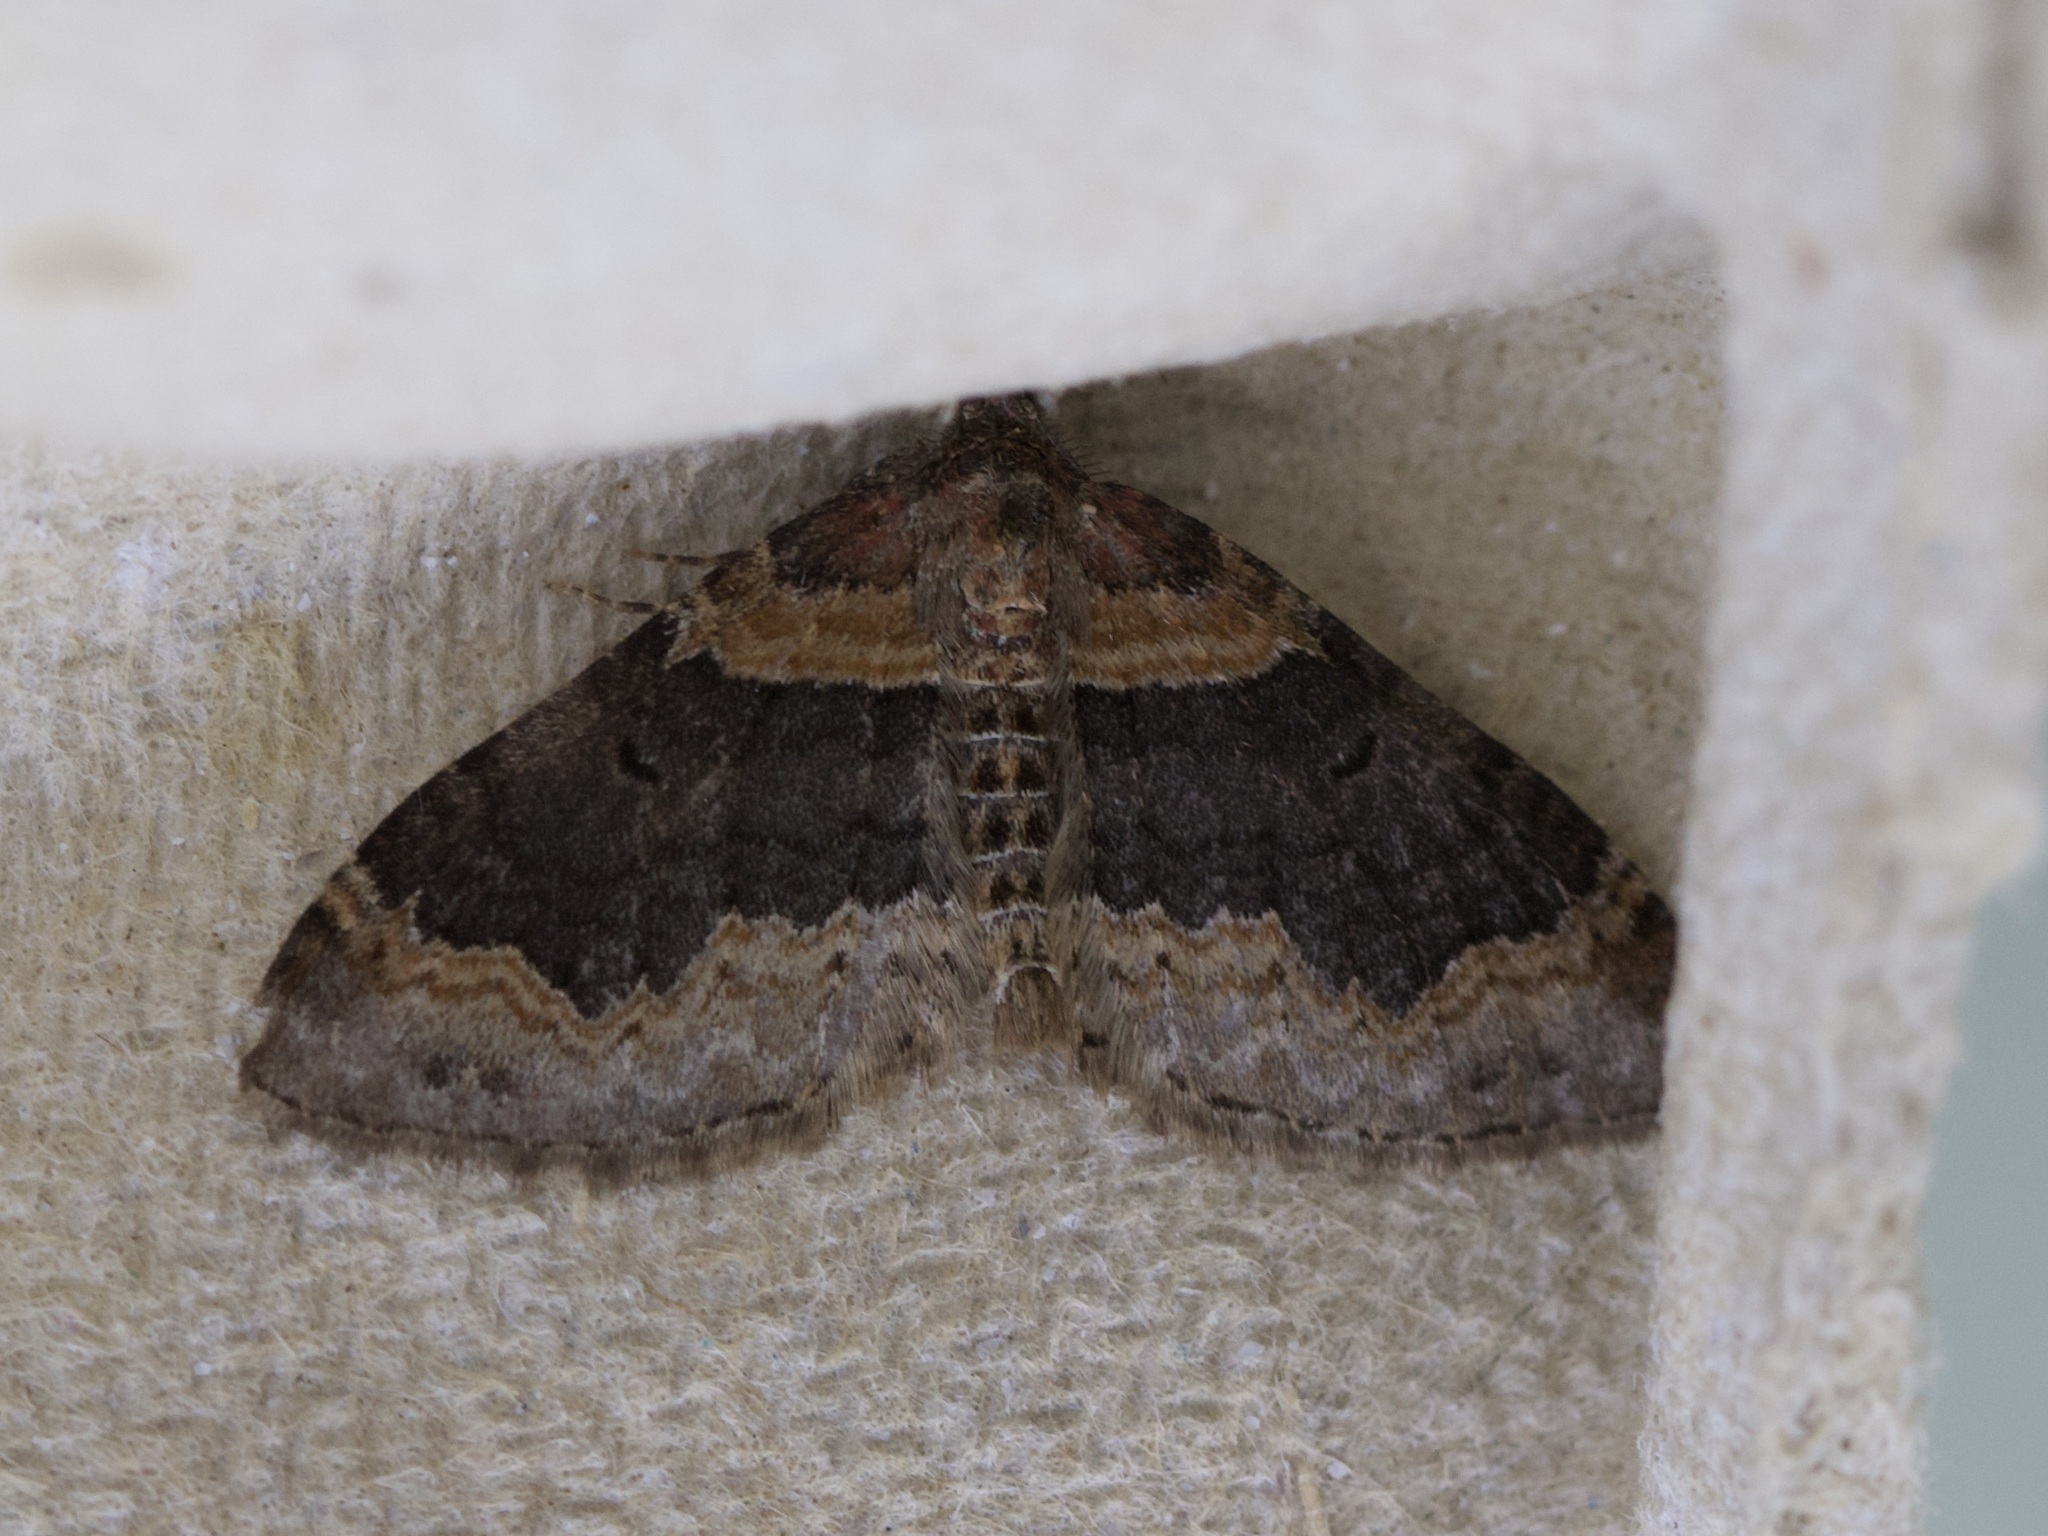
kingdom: Animalia
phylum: Arthropoda
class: Insecta
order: Lepidoptera
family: Geometridae
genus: Xanthorhoe
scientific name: Xanthorhoe ferrugata
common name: Dark-barred twin-spot carpet
